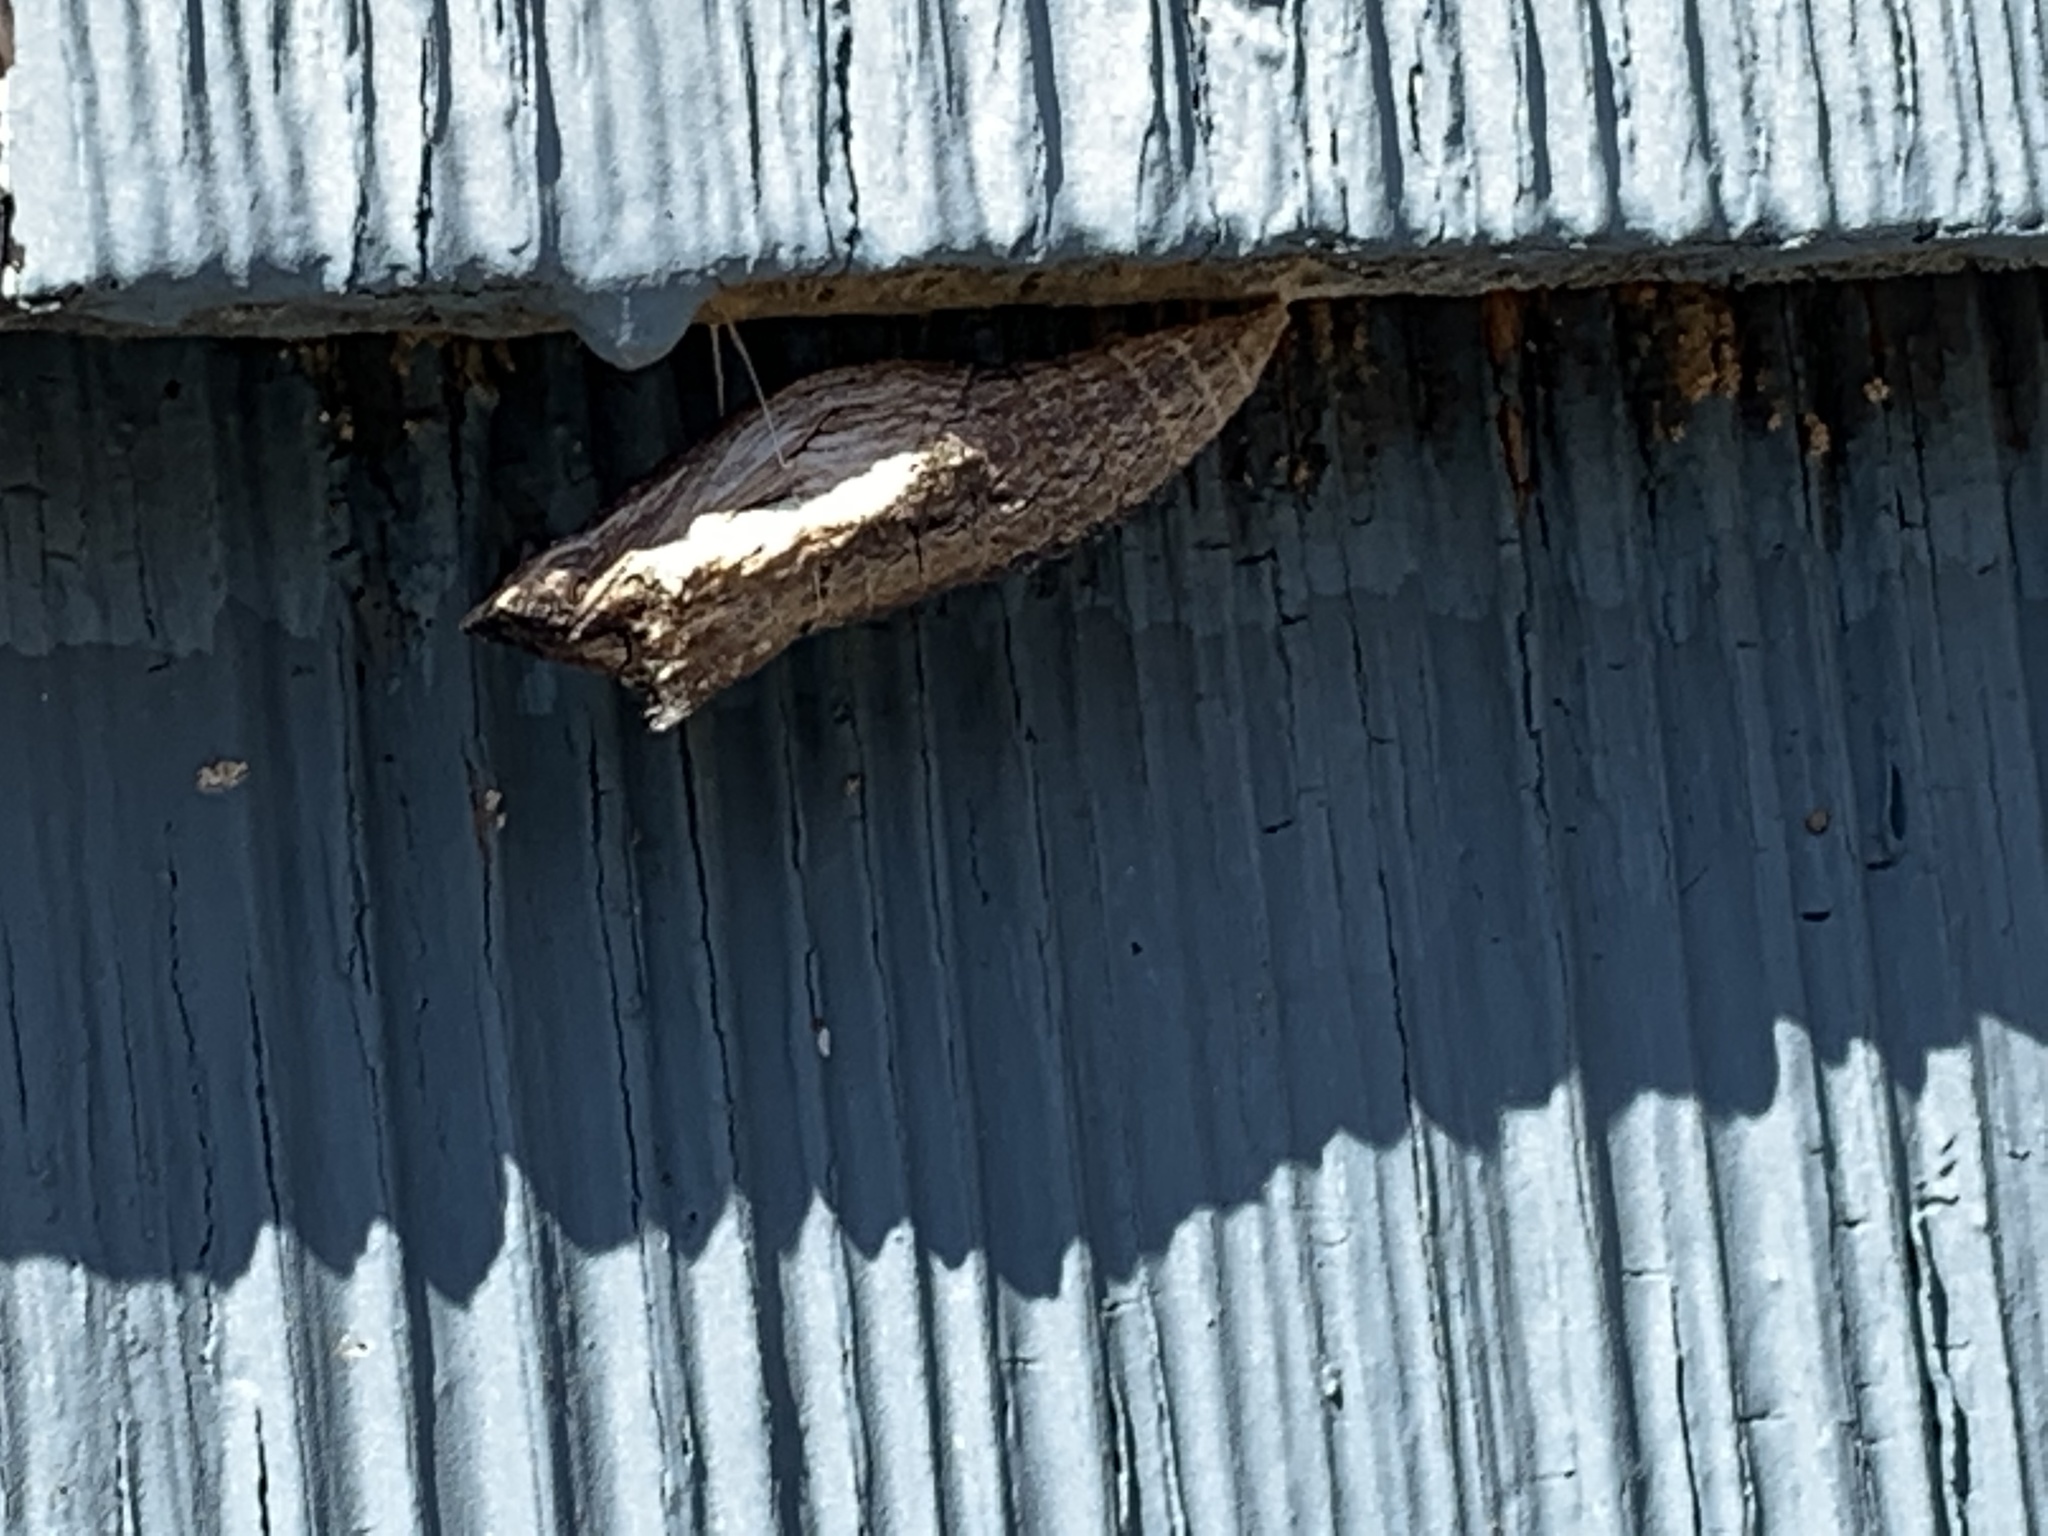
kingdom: Animalia
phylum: Arthropoda
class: Insecta
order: Lepidoptera
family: Papilionidae
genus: Papilio
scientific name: Papilio polyxenes
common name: Black swallowtail
